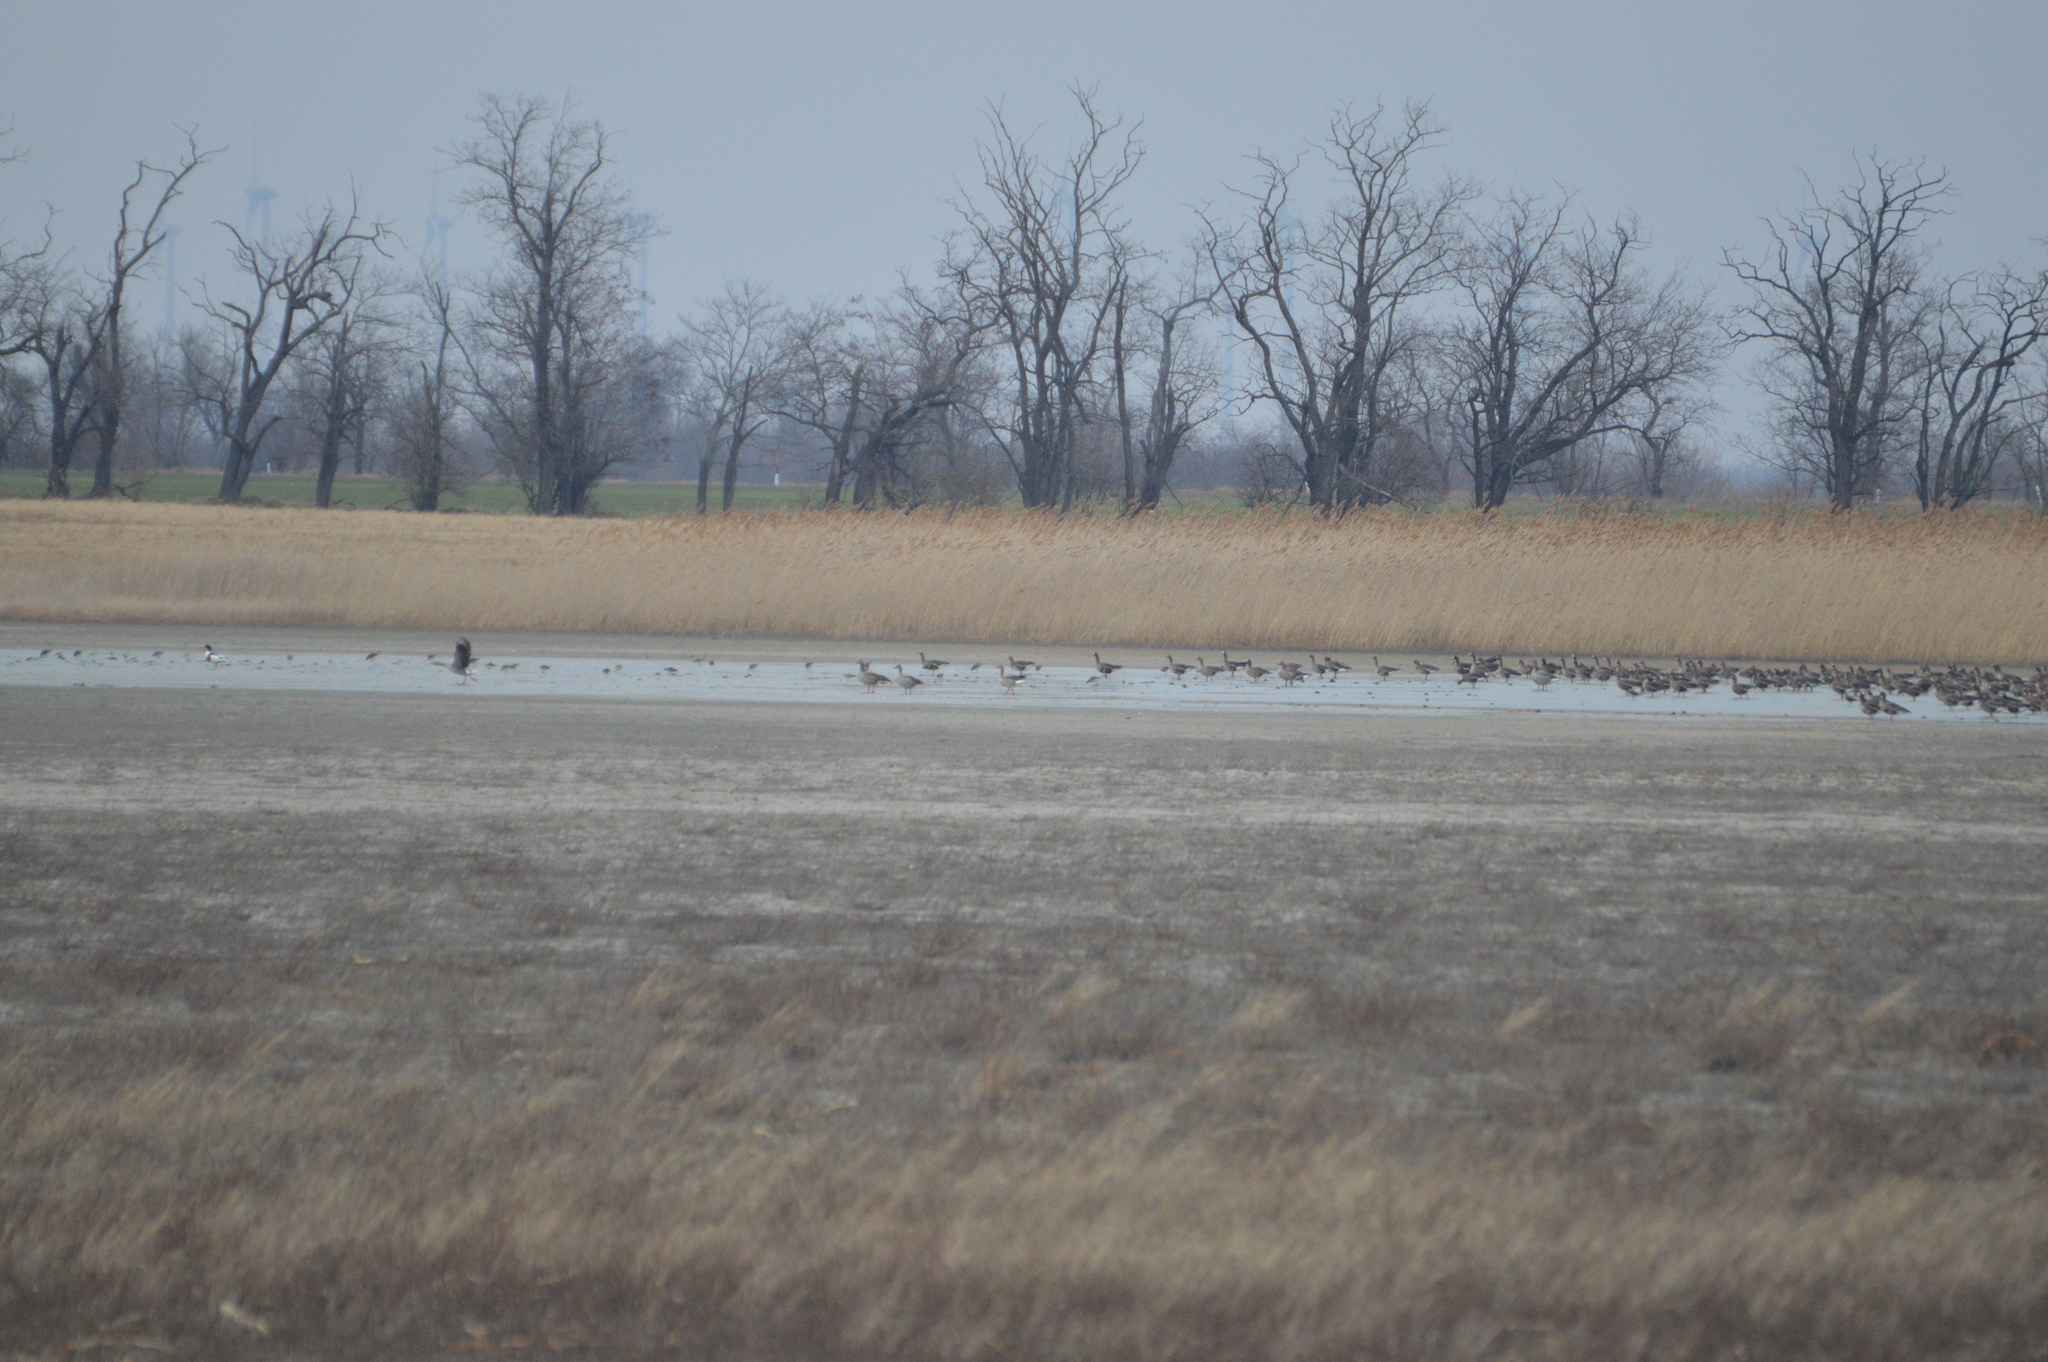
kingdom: Animalia
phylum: Chordata
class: Aves
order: Anseriformes
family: Anatidae
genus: Tadorna
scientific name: Tadorna tadorna
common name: Common shelduck
